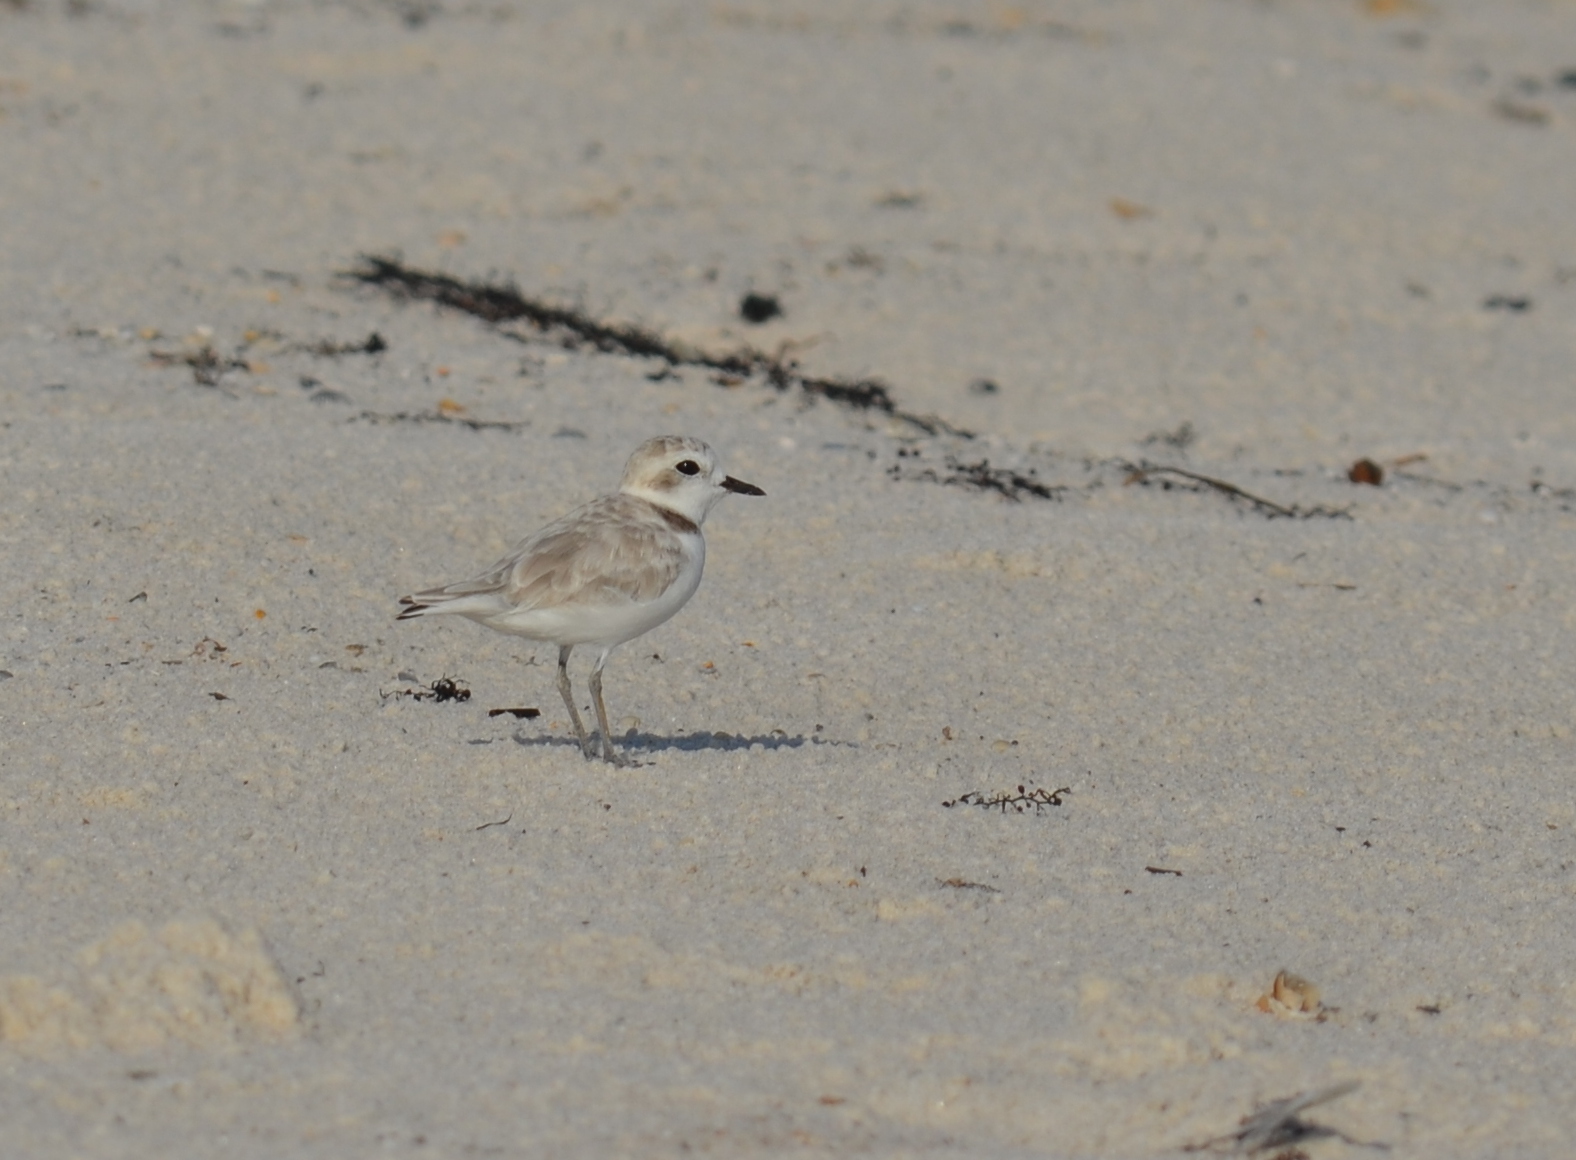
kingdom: Animalia
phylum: Chordata
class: Aves
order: Charadriiformes
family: Charadriidae
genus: Anarhynchus
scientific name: Anarhynchus
